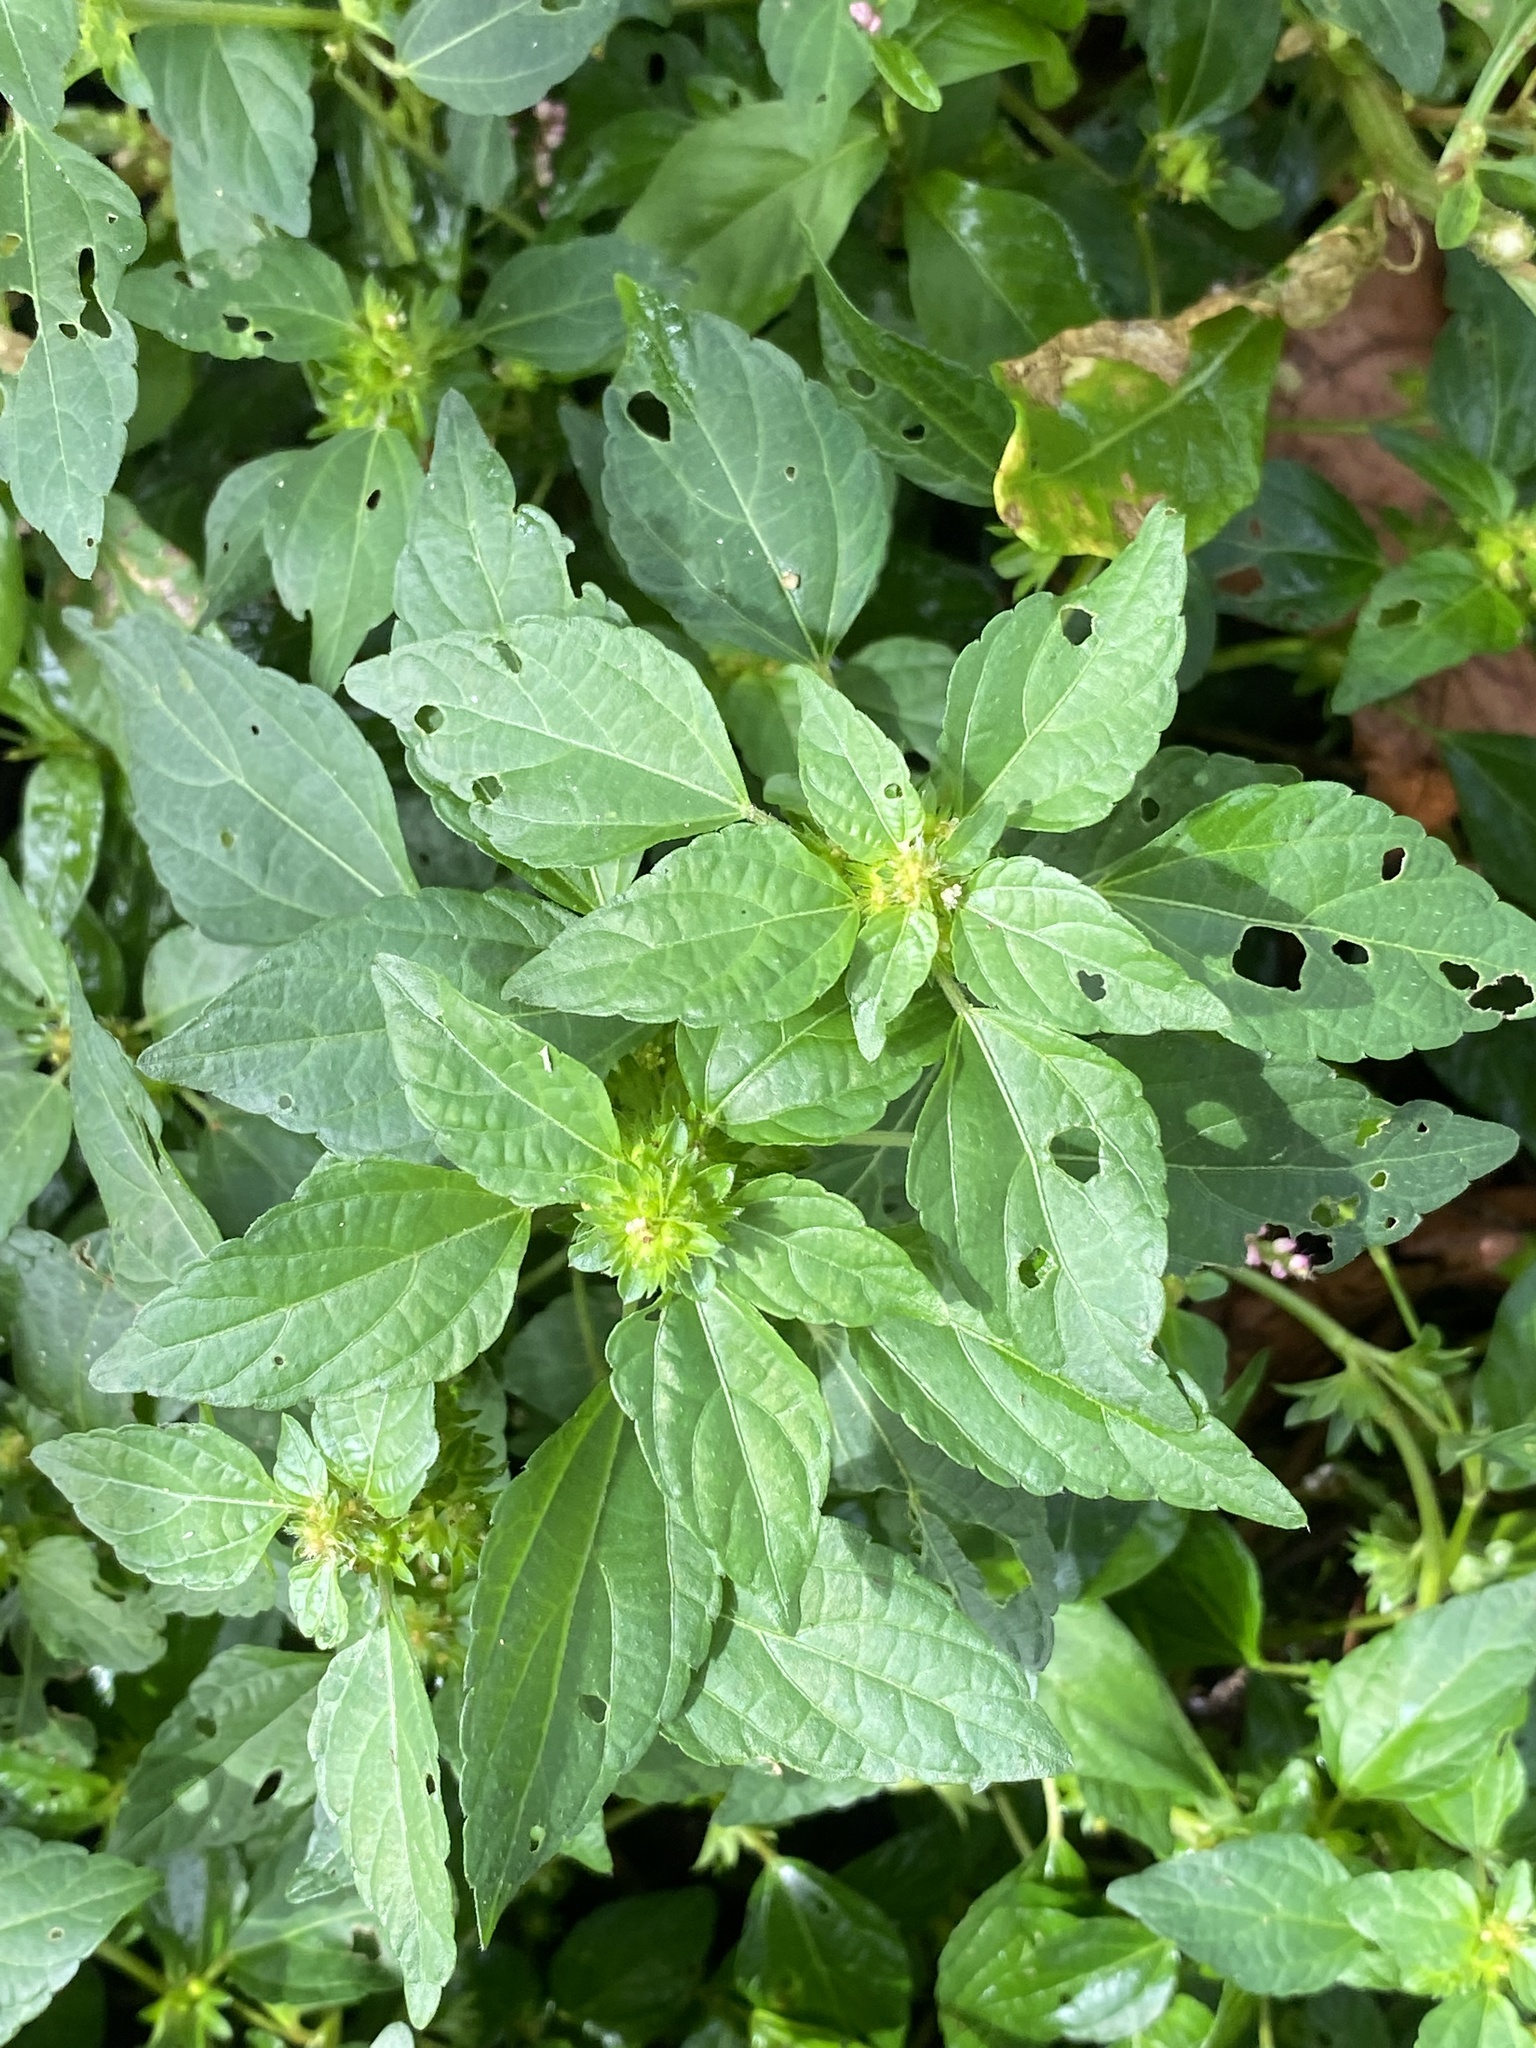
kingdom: Plantae
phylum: Tracheophyta
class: Magnoliopsida
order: Malpighiales
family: Euphorbiaceae
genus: Acalypha
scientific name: Acalypha rhomboidea
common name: Rhombic copperleaf
